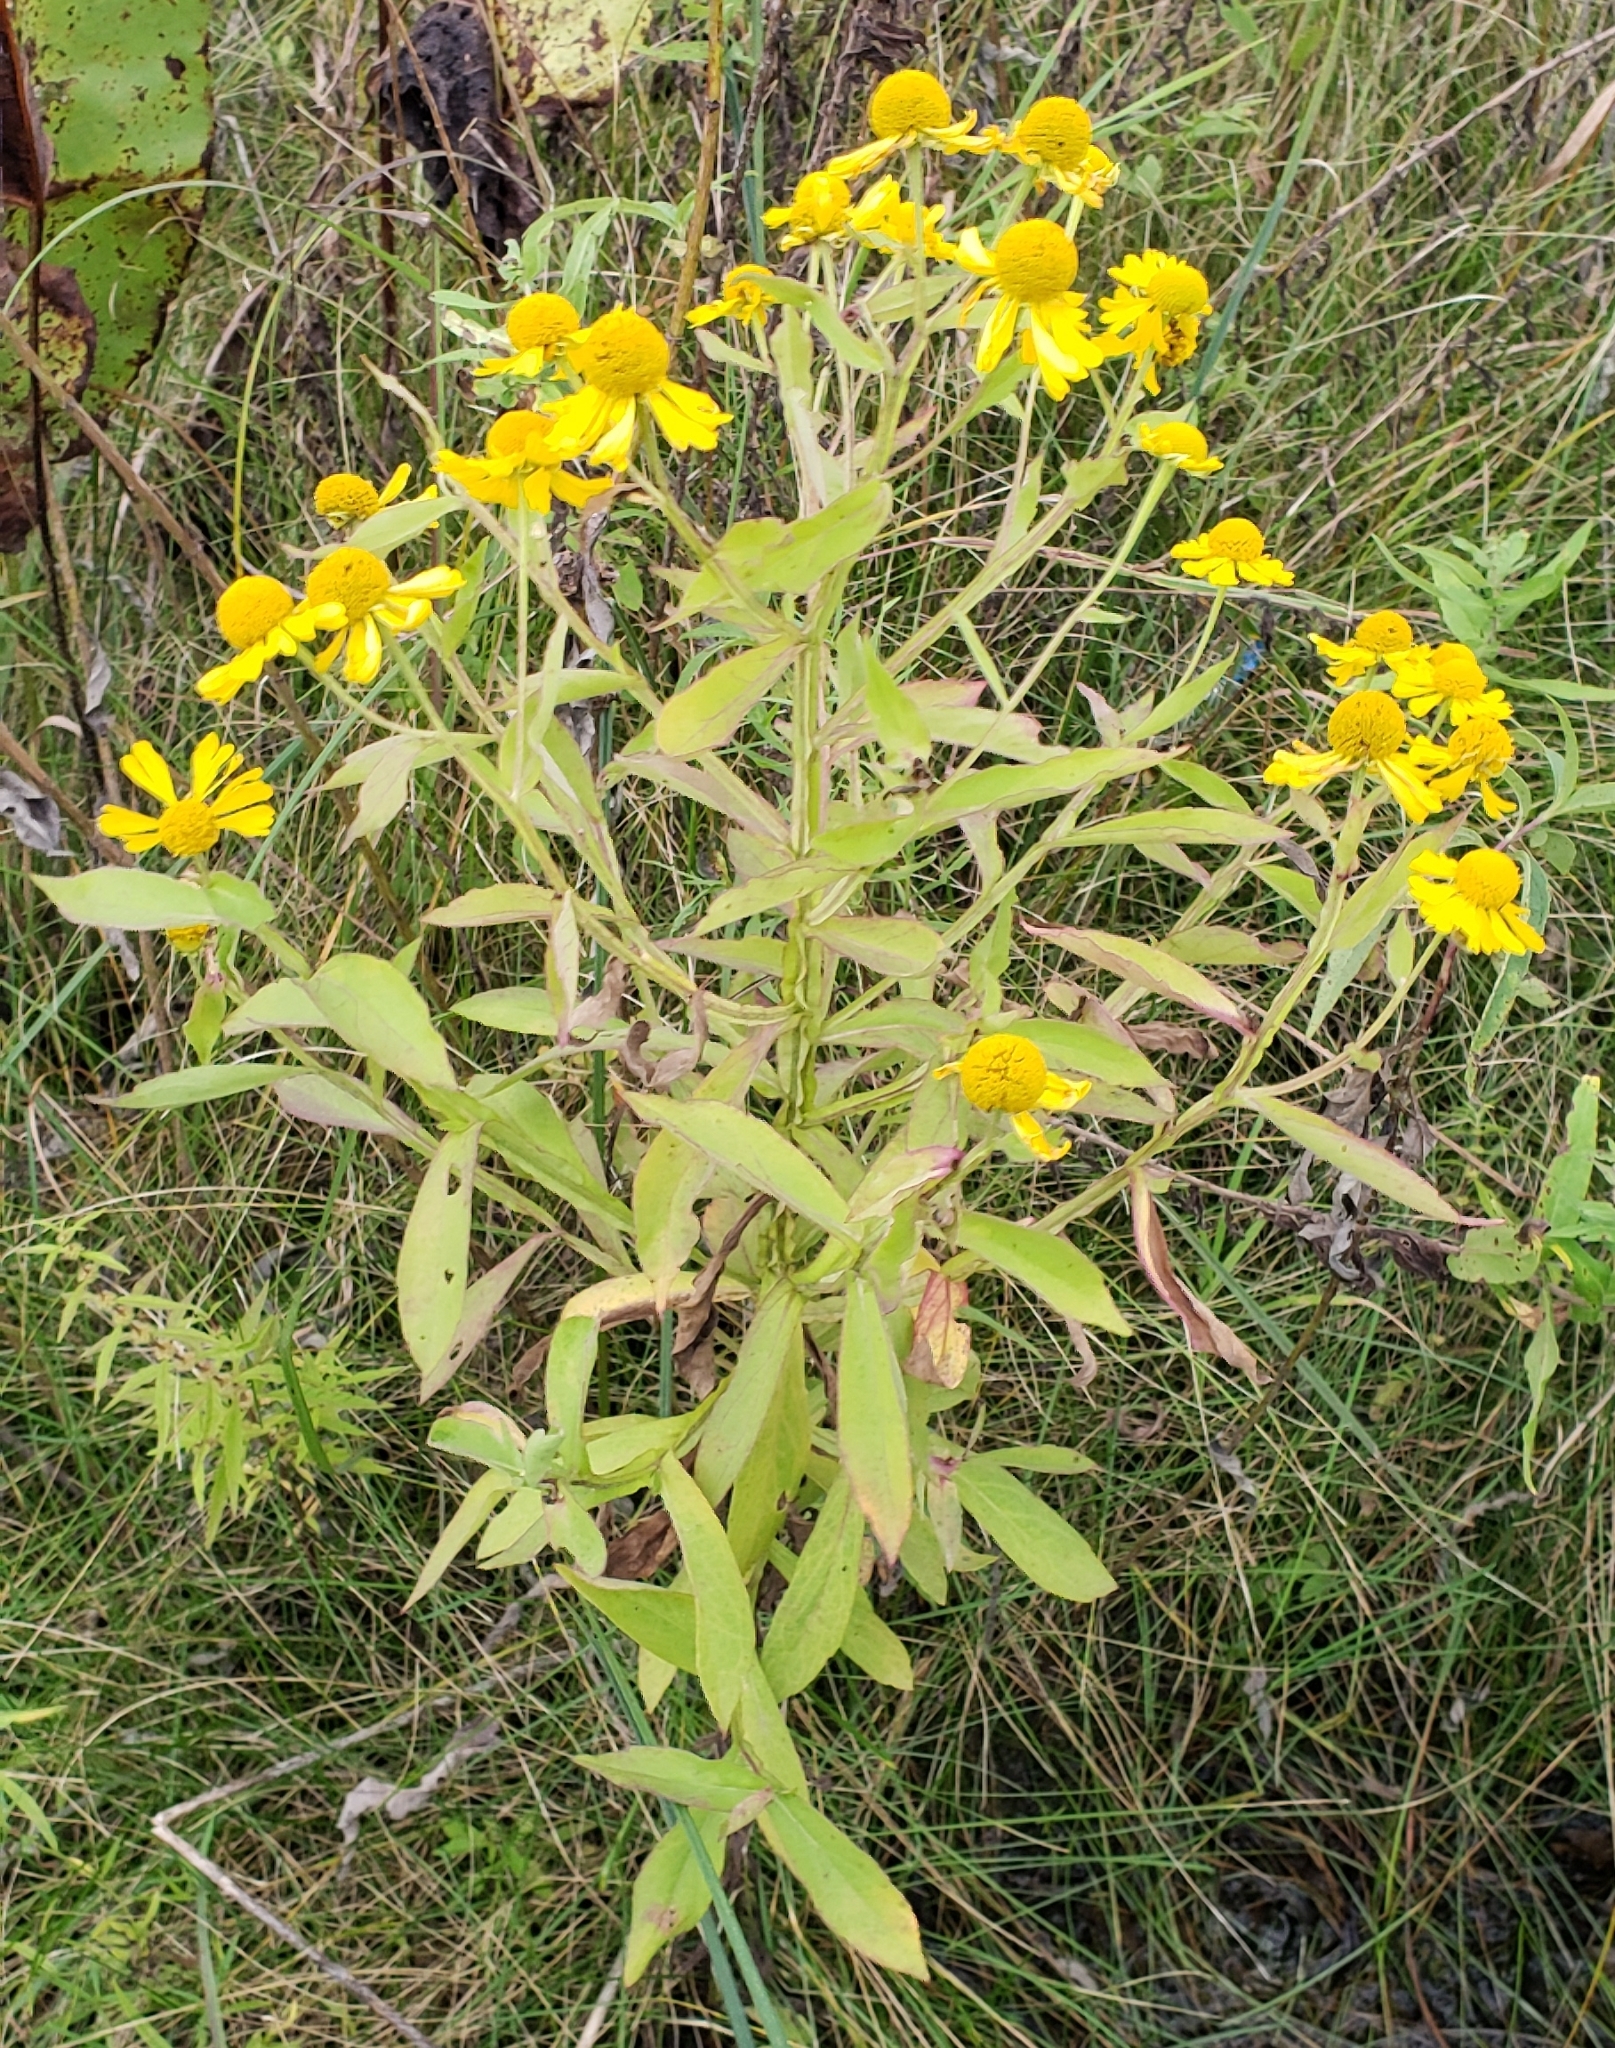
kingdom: Plantae
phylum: Tracheophyta
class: Magnoliopsida
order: Asterales
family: Asteraceae
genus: Helenium
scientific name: Helenium autumnale
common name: Sneezeweed
